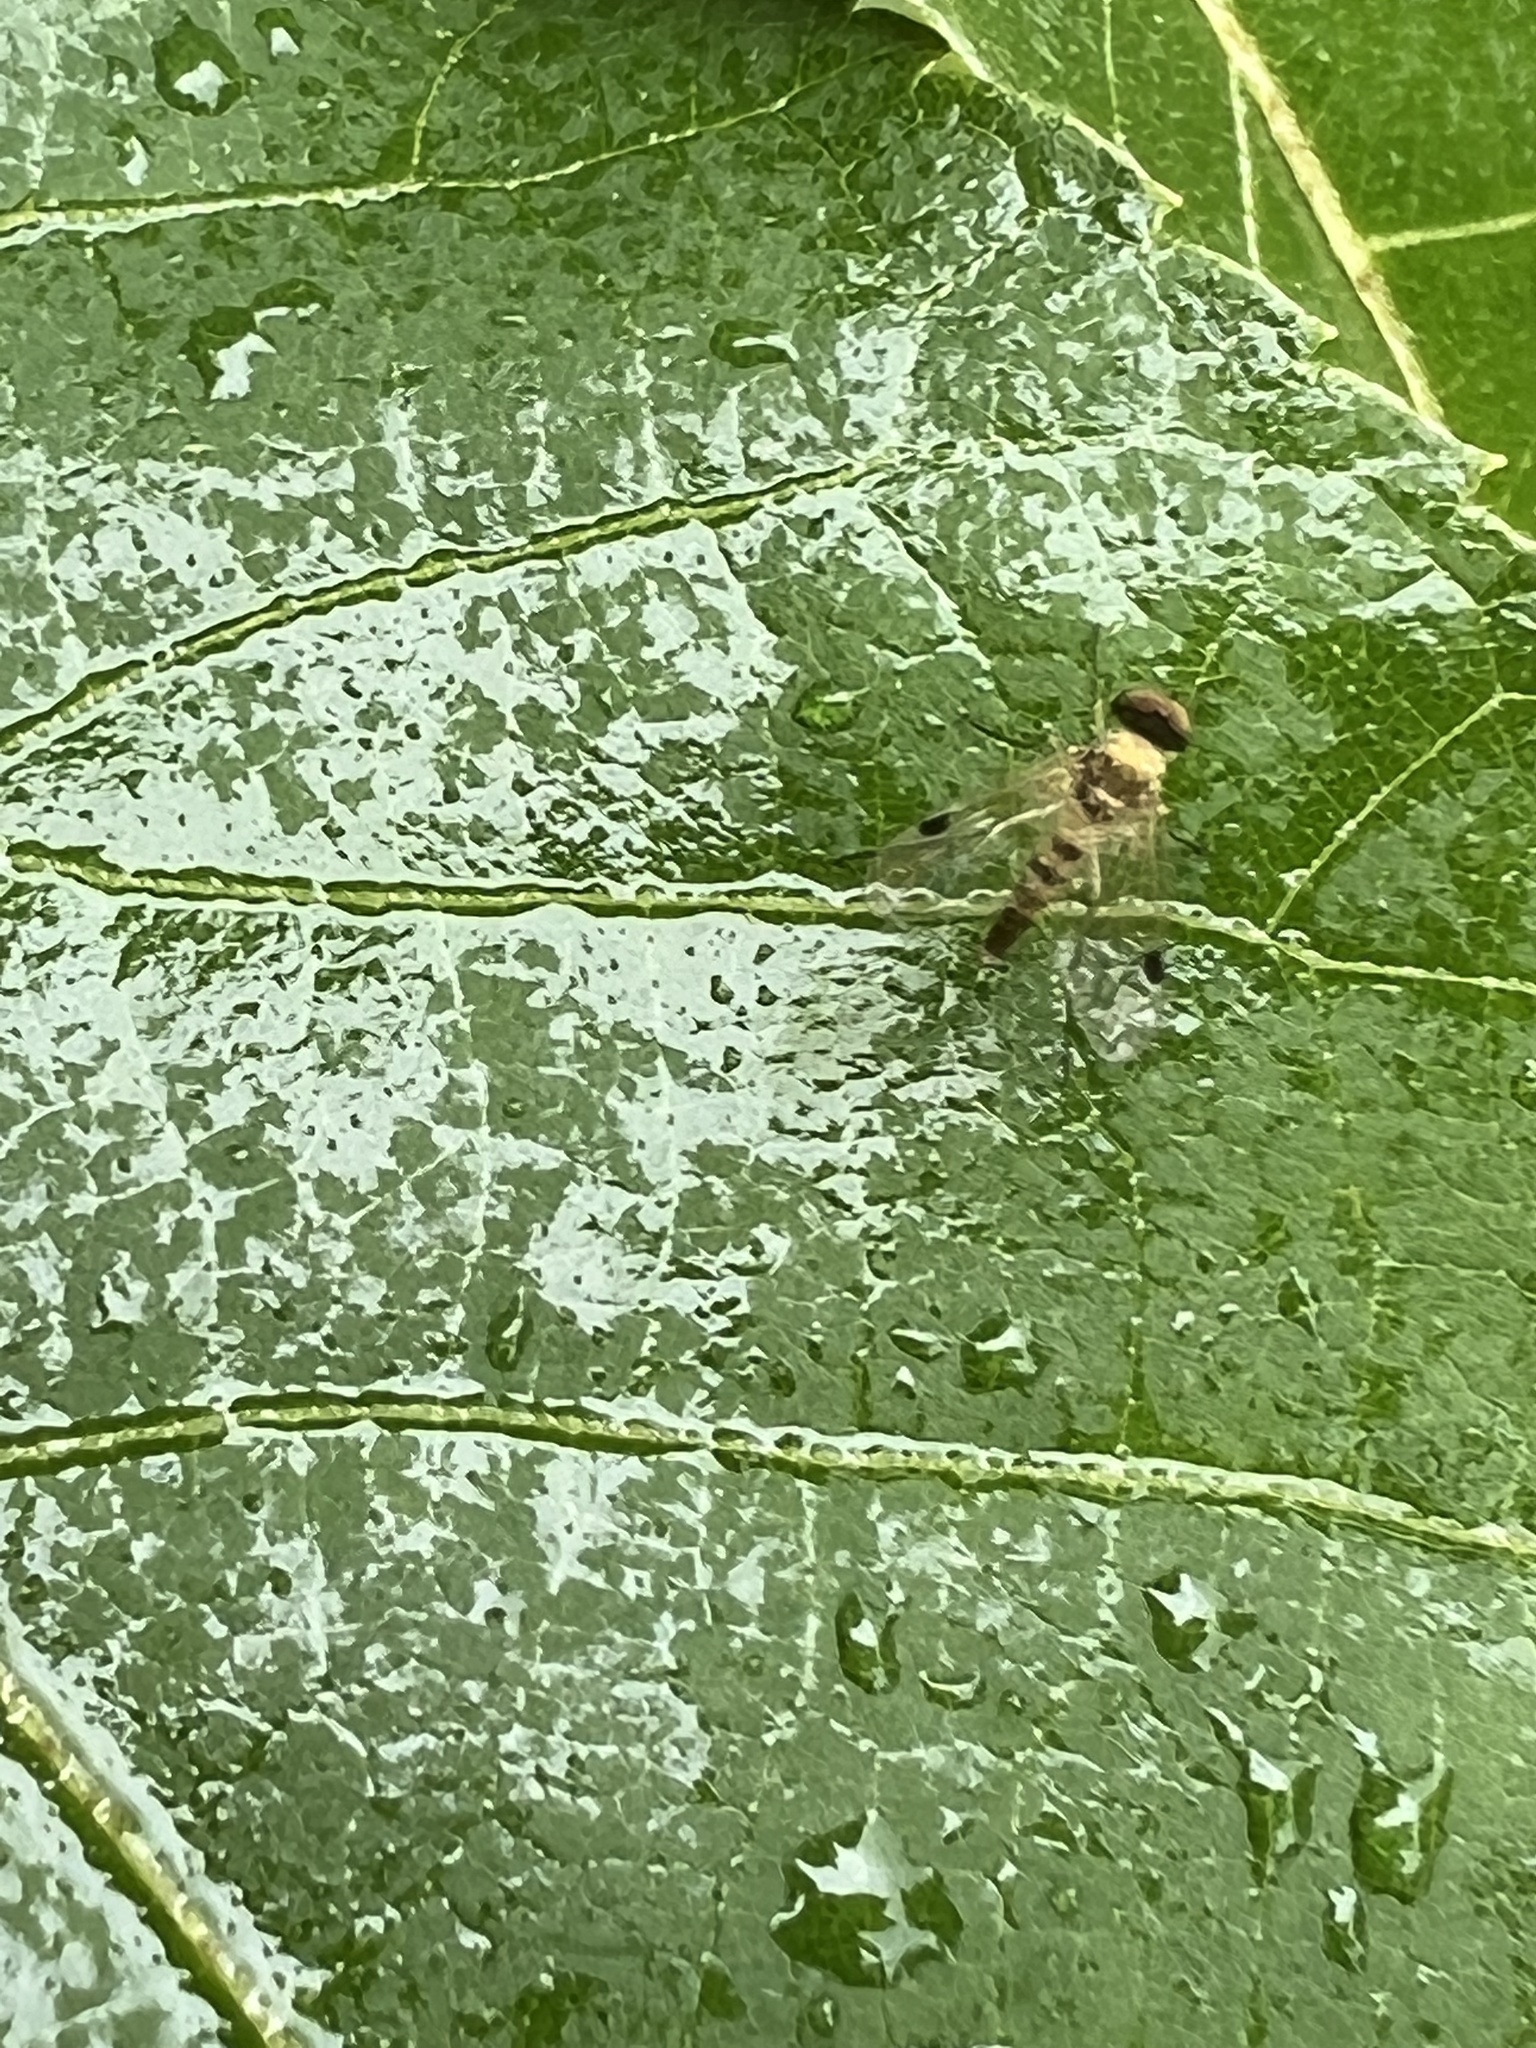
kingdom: Animalia
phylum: Arthropoda
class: Insecta
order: Diptera
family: Rhagionidae
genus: Chrysopilus
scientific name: Chrysopilus modestus
